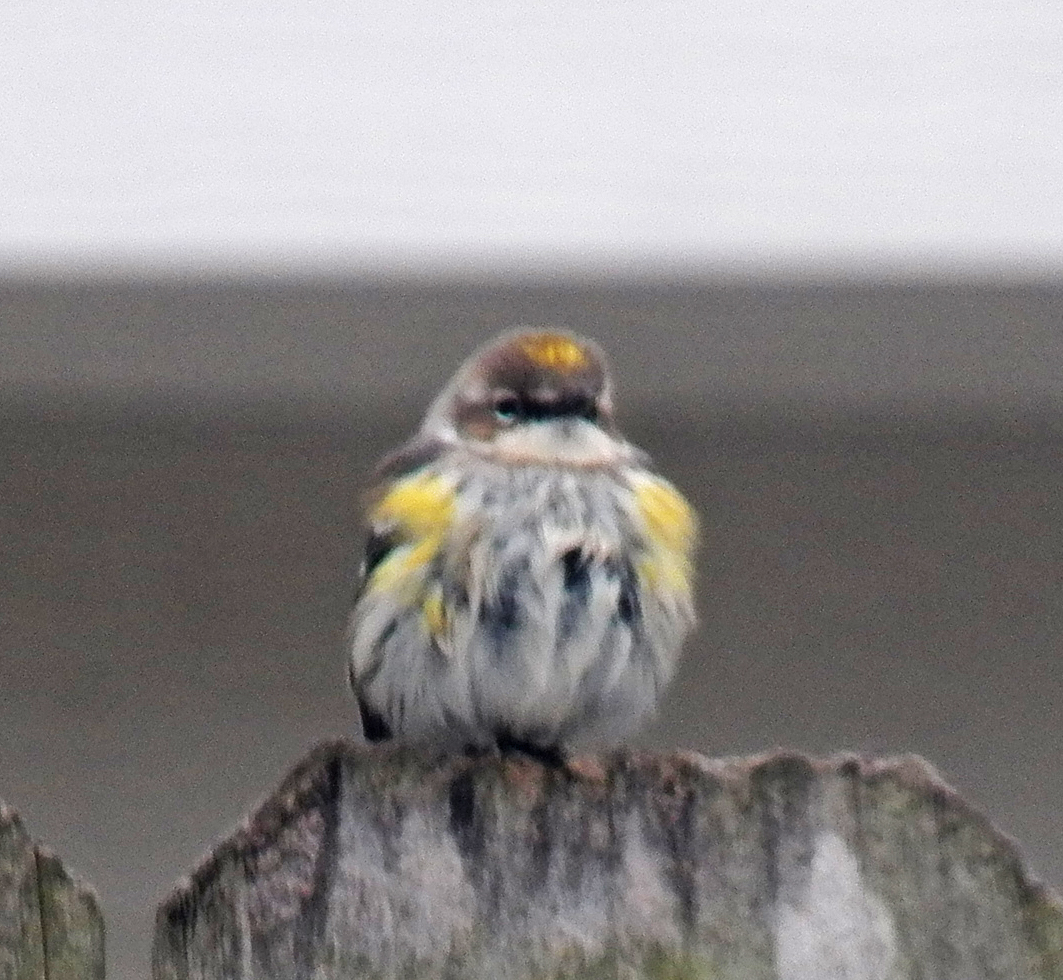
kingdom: Animalia
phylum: Chordata
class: Aves
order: Passeriformes
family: Parulidae
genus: Setophaga
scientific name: Setophaga coronata
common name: Myrtle warbler
